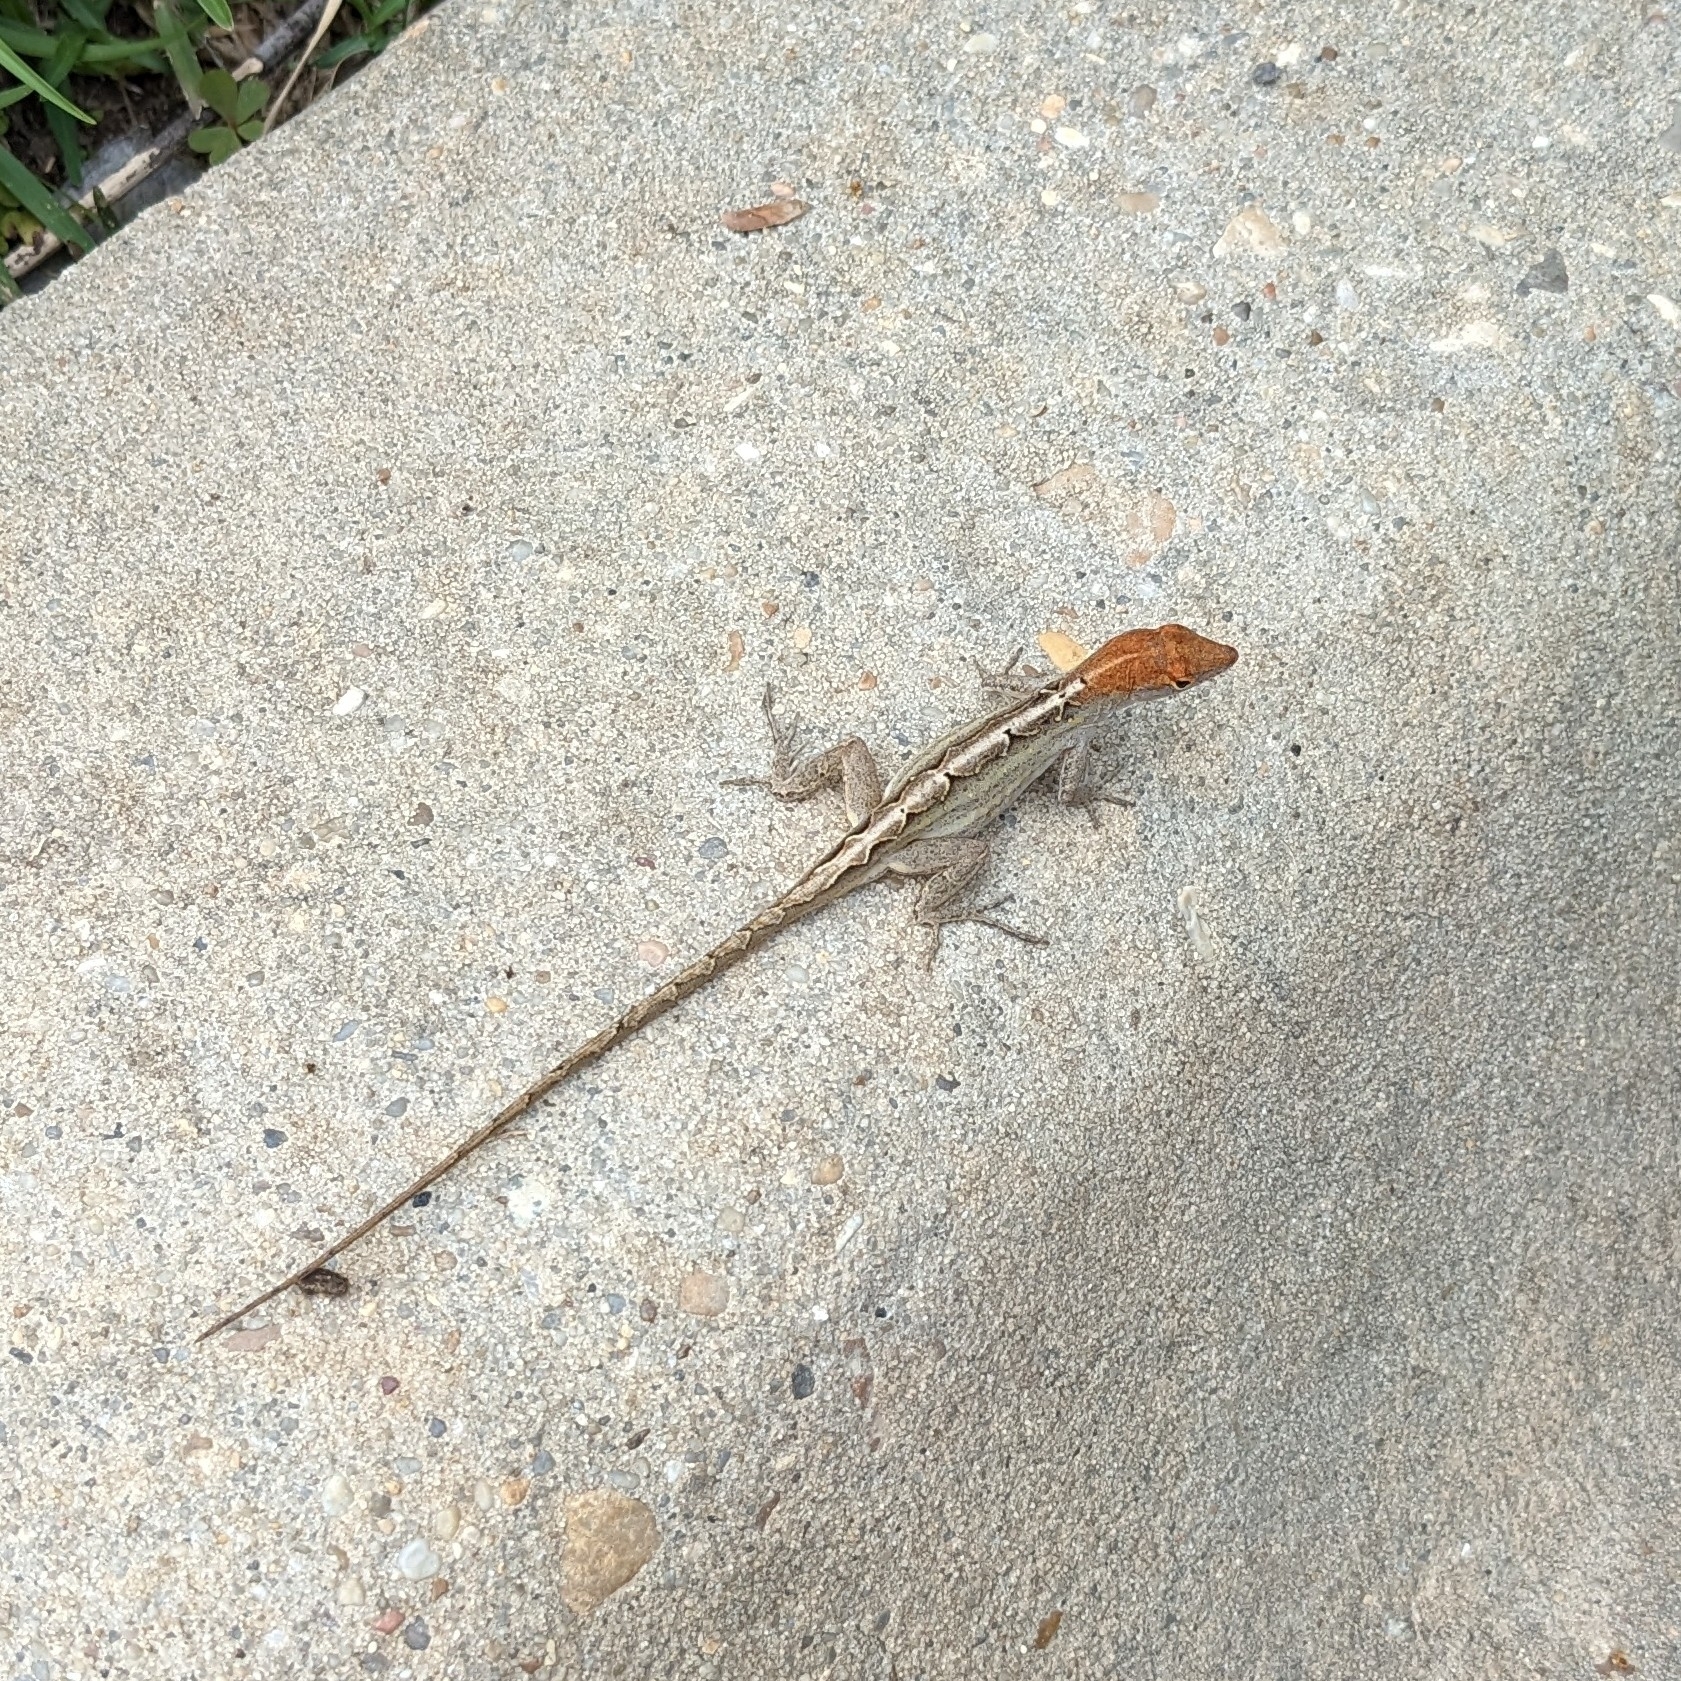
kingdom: Animalia
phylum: Chordata
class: Squamata
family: Dactyloidae
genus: Anolis
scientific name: Anolis sagrei
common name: Brown anole
